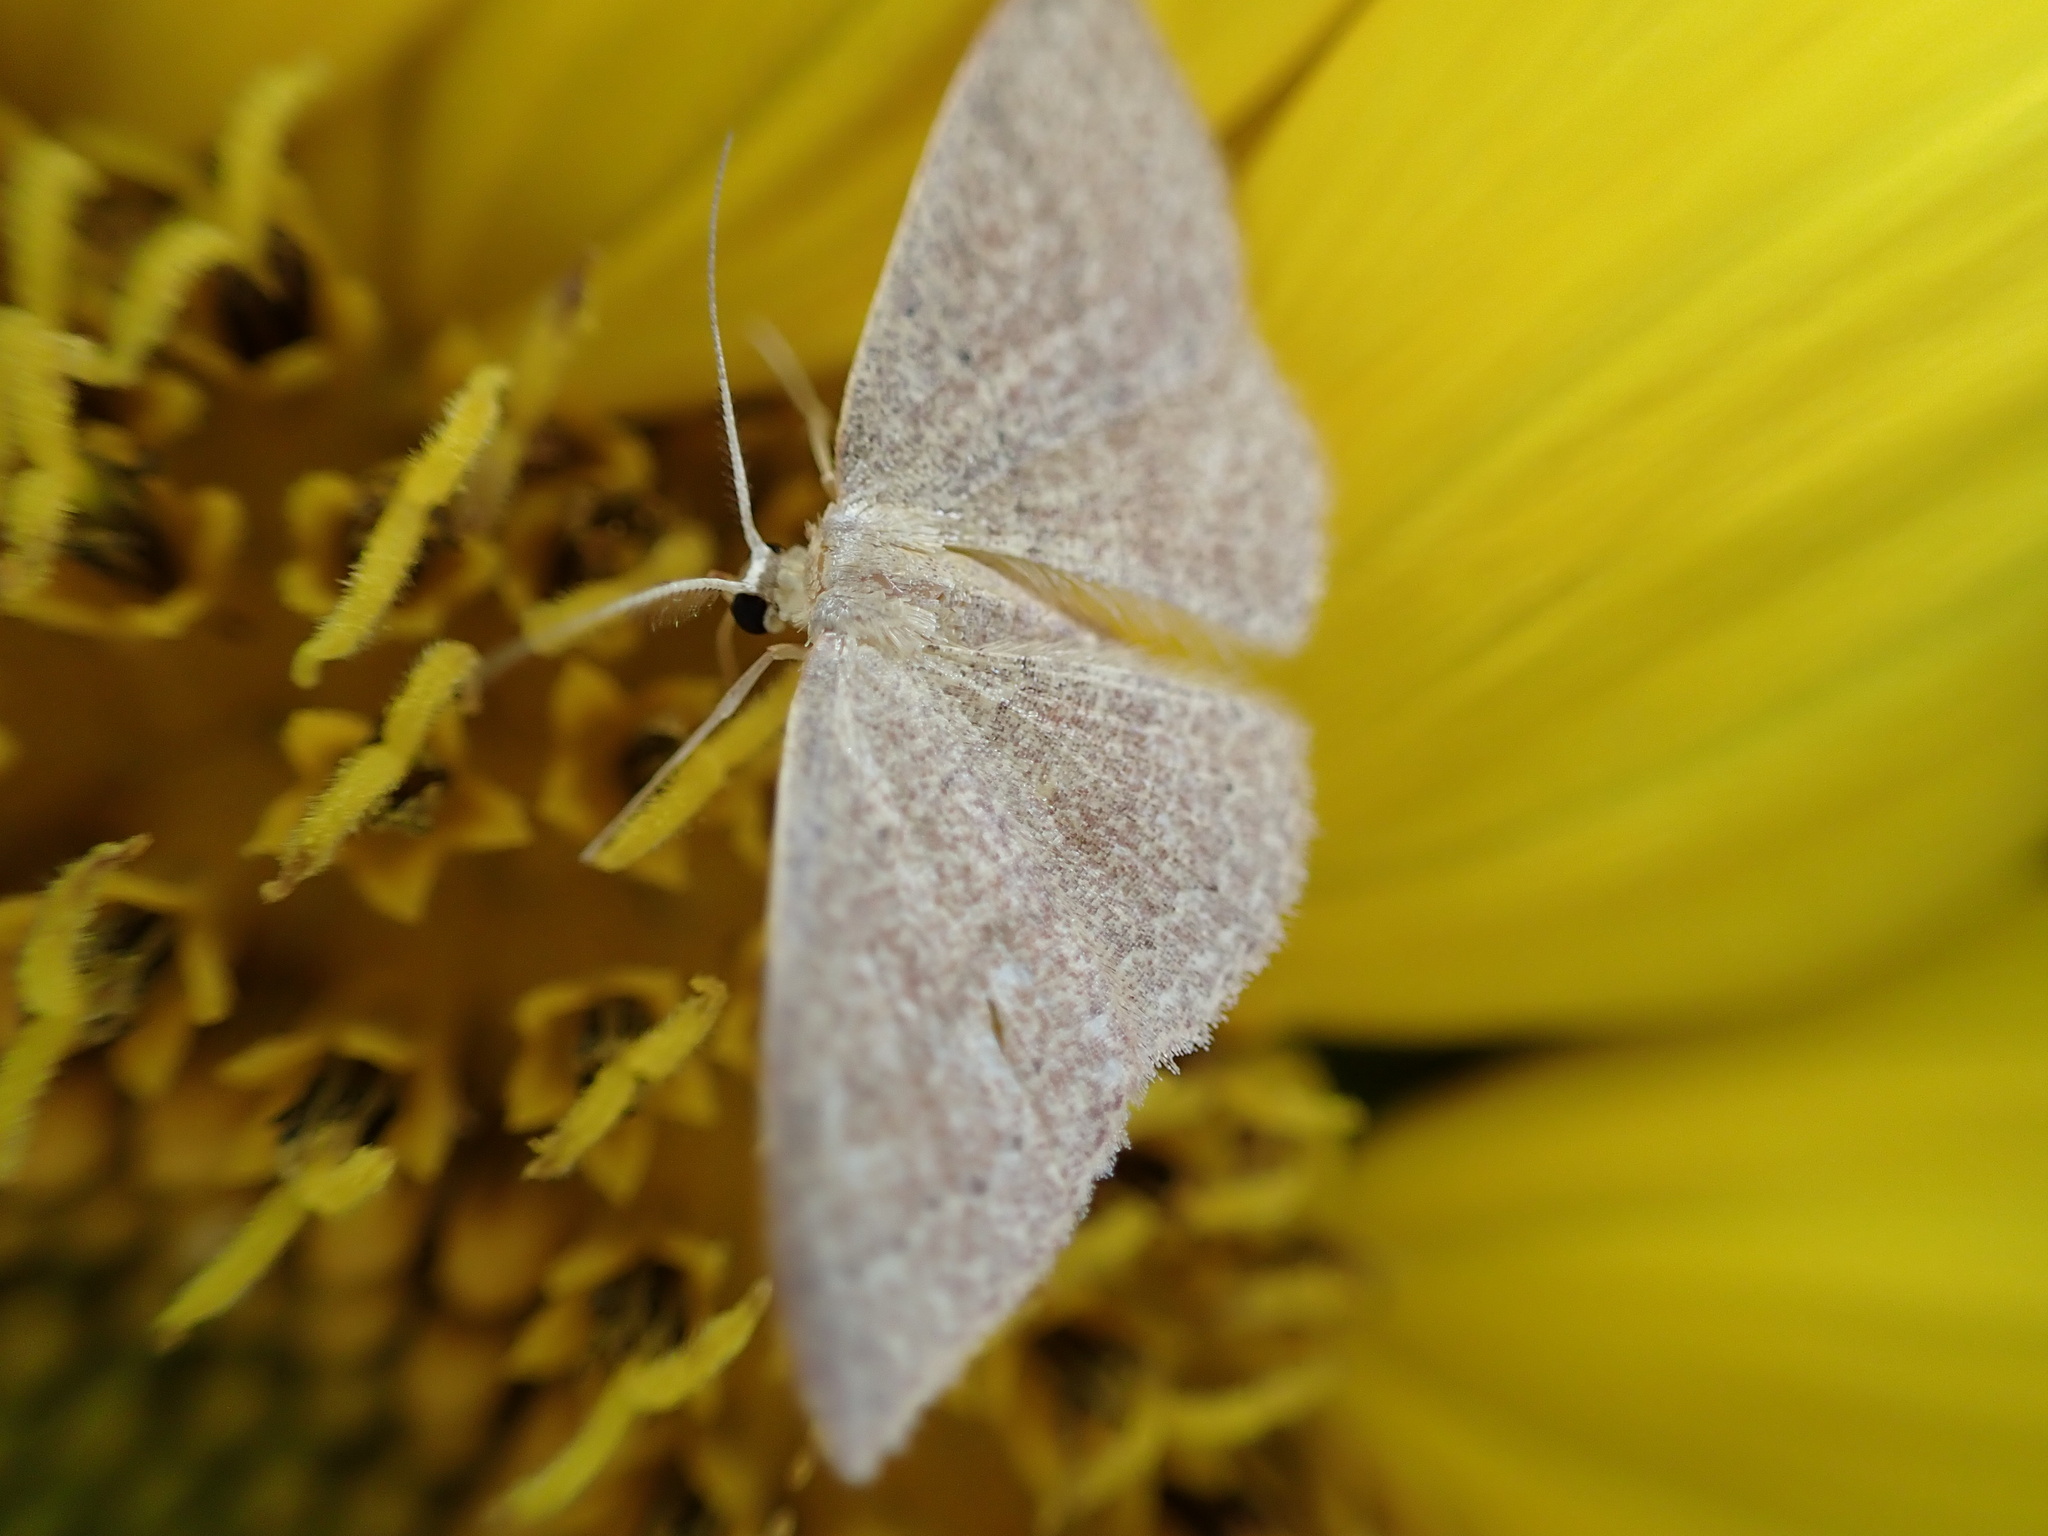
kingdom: Animalia
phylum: Arthropoda
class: Insecta
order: Lepidoptera
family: Geometridae
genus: Pleuroprucha
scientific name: Pleuroprucha insulsaria
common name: Common tan wave
